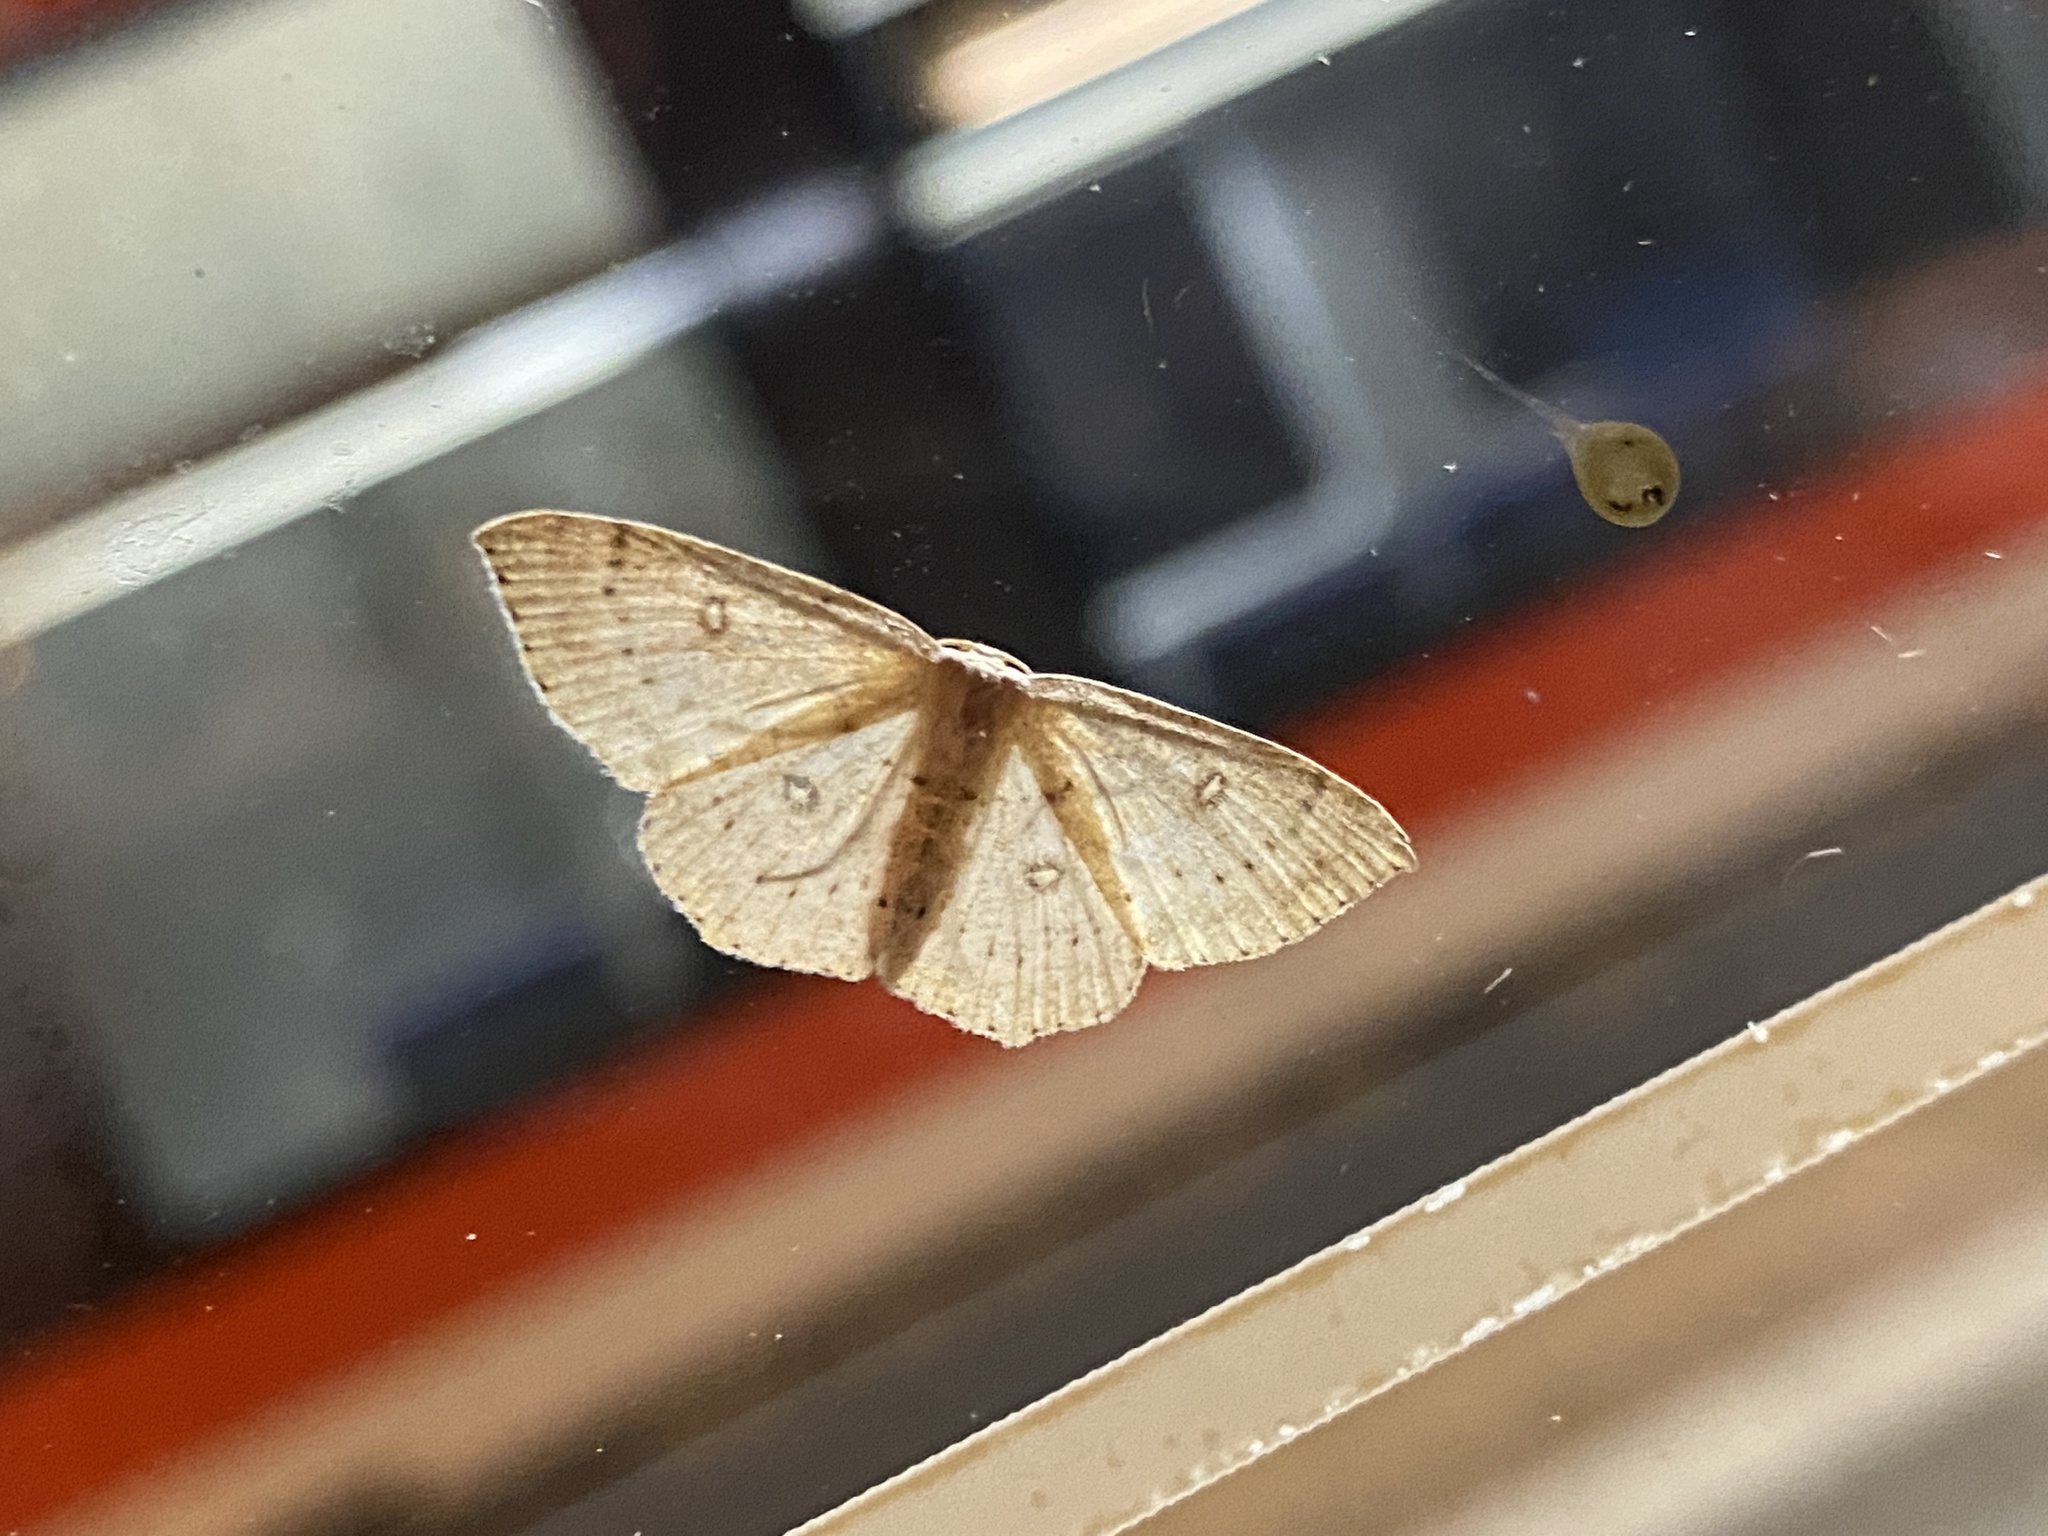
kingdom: Animalia
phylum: Arthropoda
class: Insecta
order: Lepidoptera
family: Geometridae
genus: Cyclophora
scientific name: Cyclophora albipunctata
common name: Birch mocha
